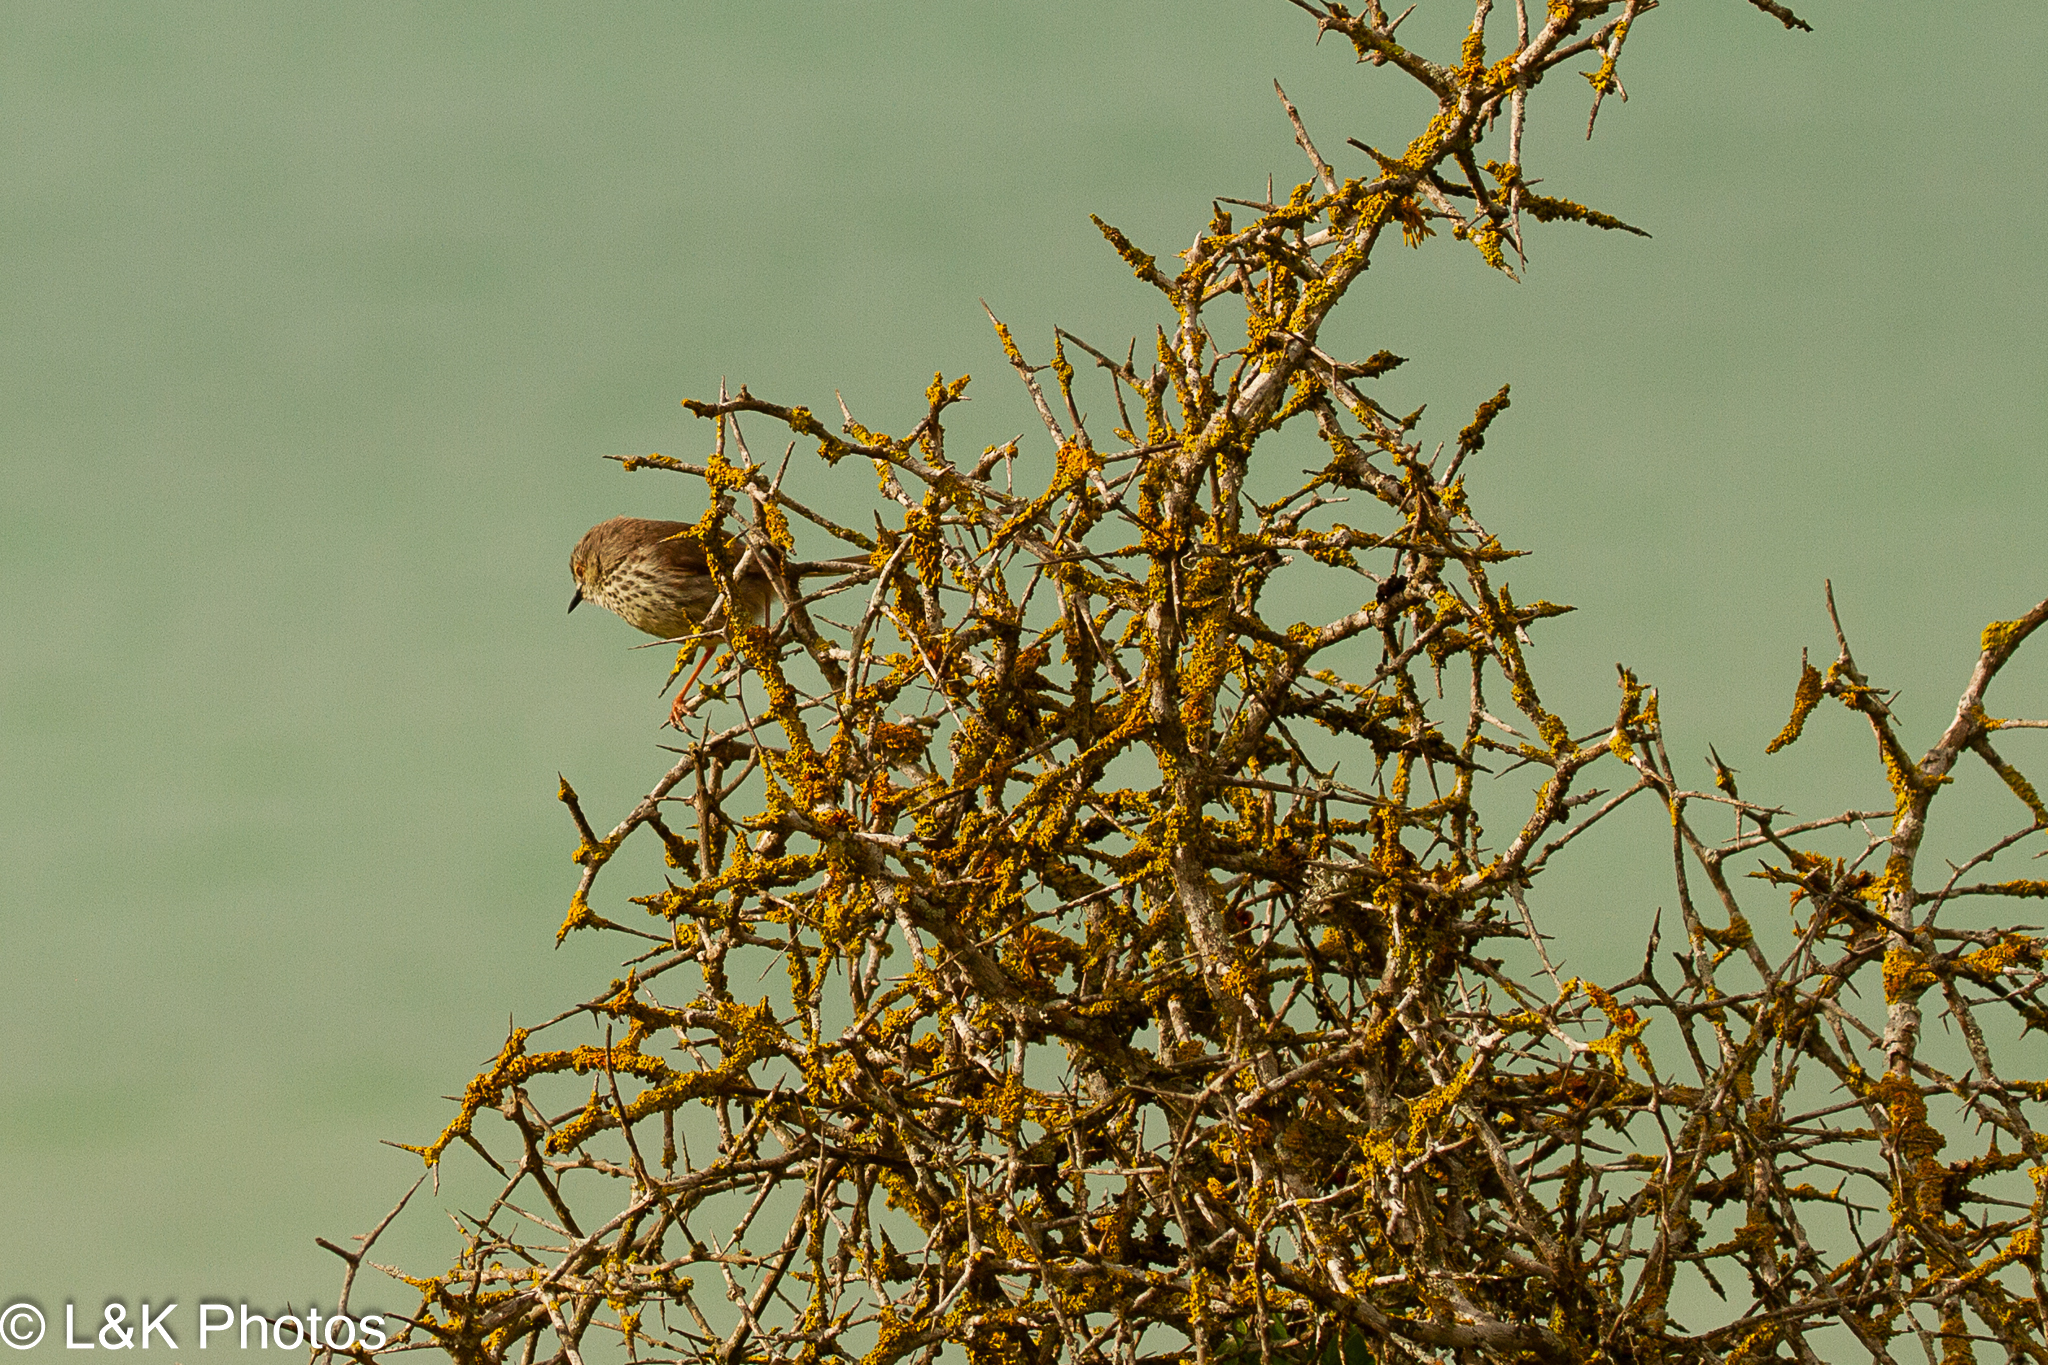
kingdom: Animalia
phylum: Chordata
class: Aves
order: Passeriformes
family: Cisticolidae
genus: Prinia
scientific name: Prinia maculosa
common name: Karoo prinia
